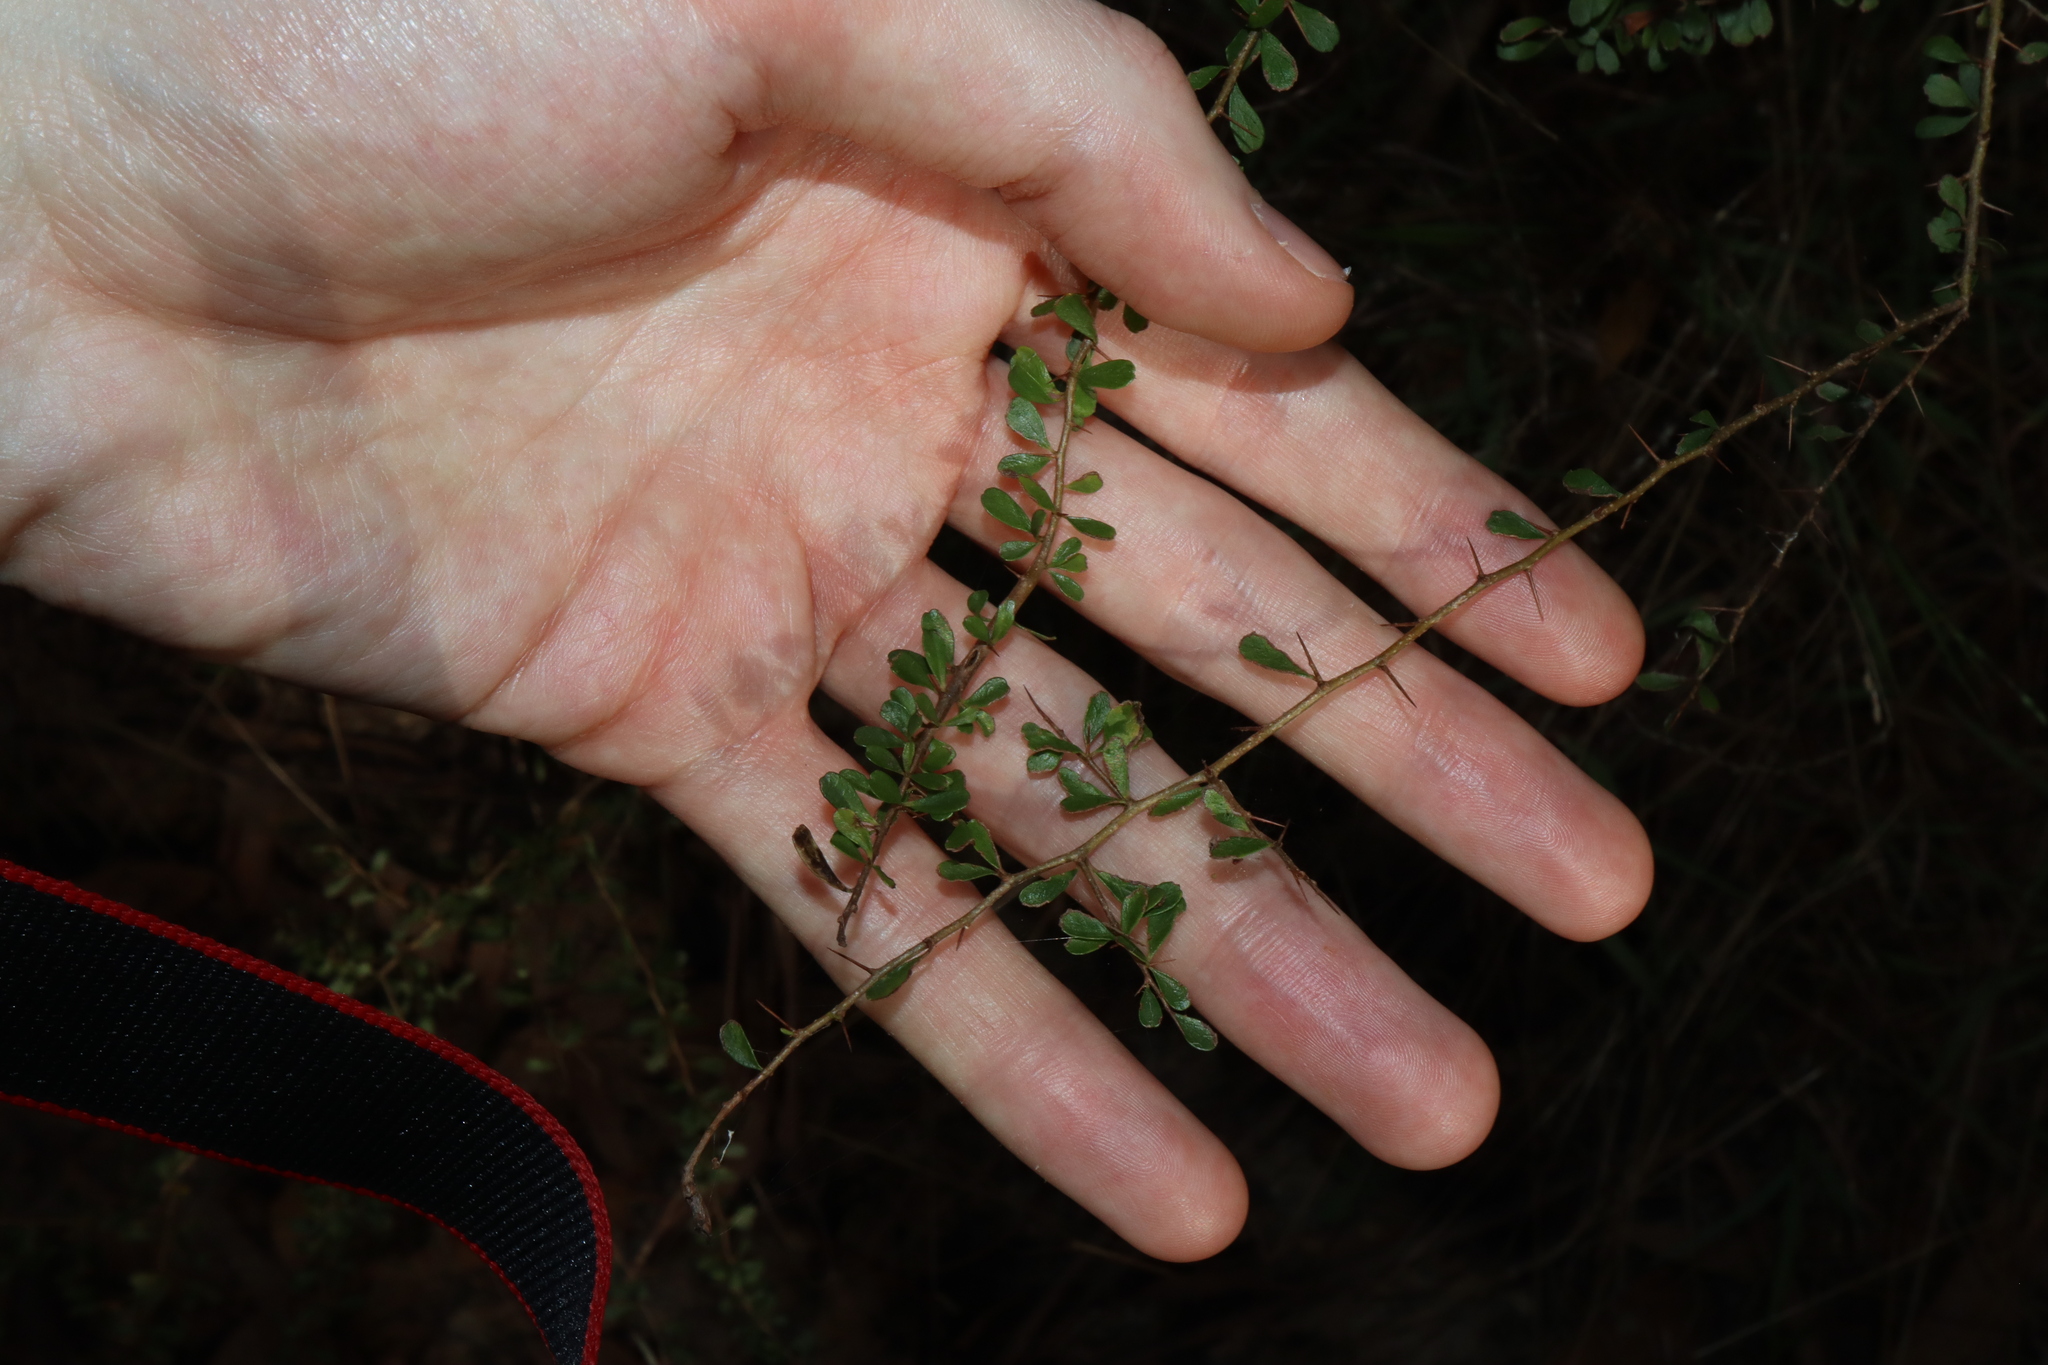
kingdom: Plantae
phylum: Tracheophyta
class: Magnoliopsida
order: Apiales
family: Pittosporaceae
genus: Bursaria
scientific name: Bursaria spinosa
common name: Australian blackthorn
